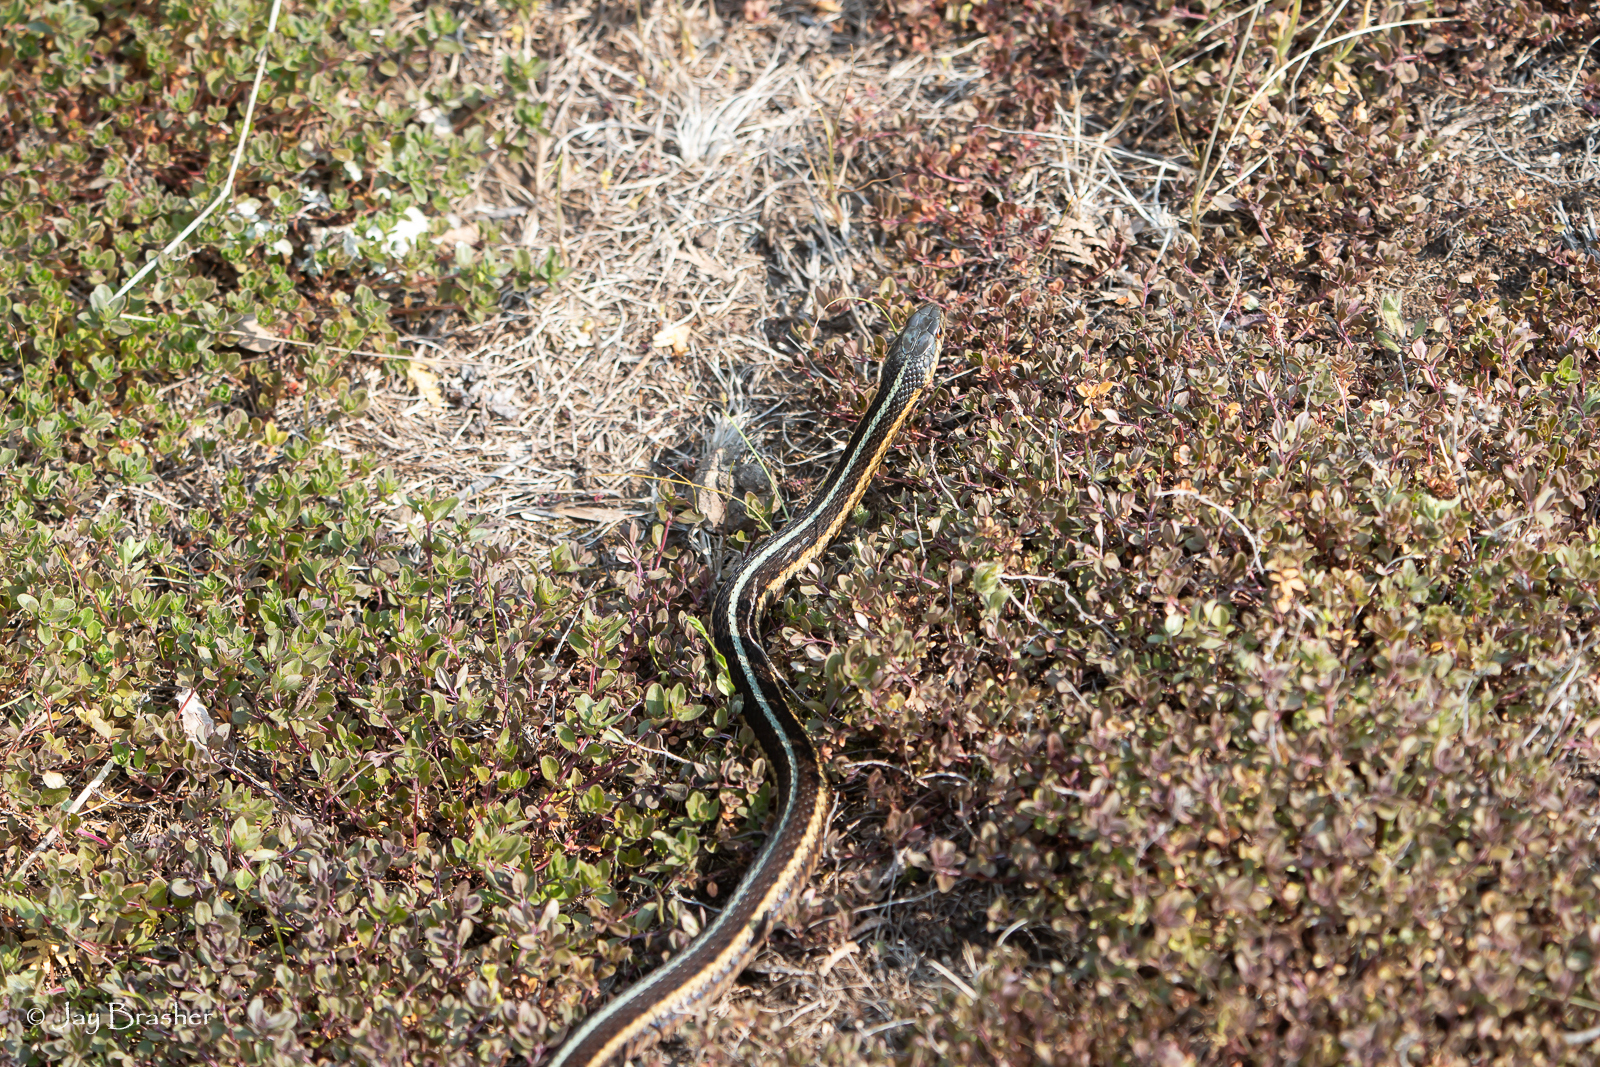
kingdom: Animalia
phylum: Chordata
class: Squamata
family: Colubridae
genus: Thamnophis
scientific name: Thamnophis sirtalis
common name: Common garter snake
